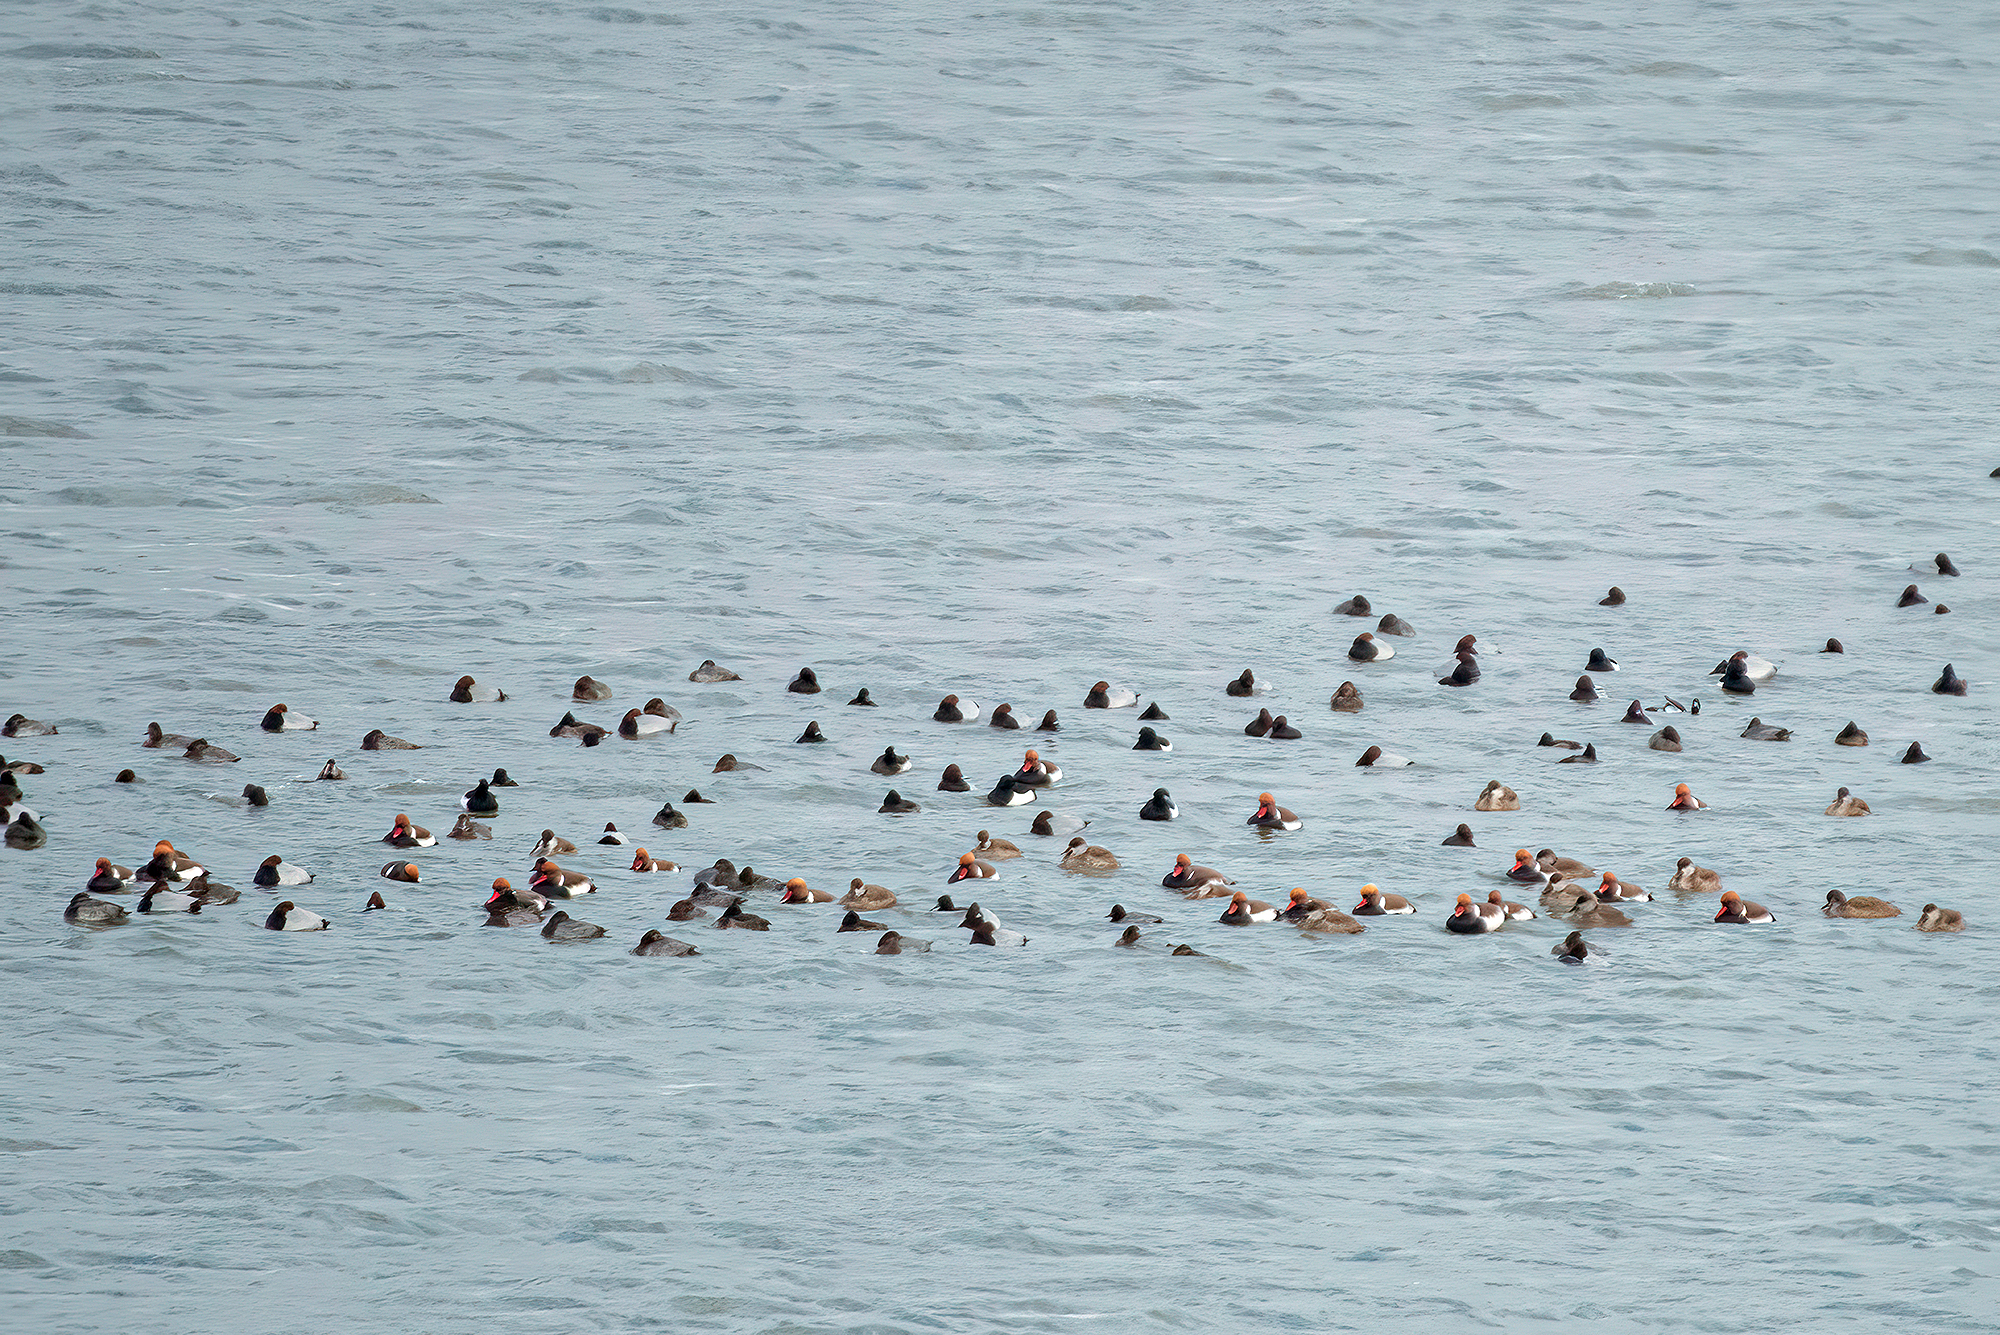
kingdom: Animalia
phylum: Chordata
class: Aves
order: Anseriformes
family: Anatidae
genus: Netta
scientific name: Netta rufina
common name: Red-crested pochard
